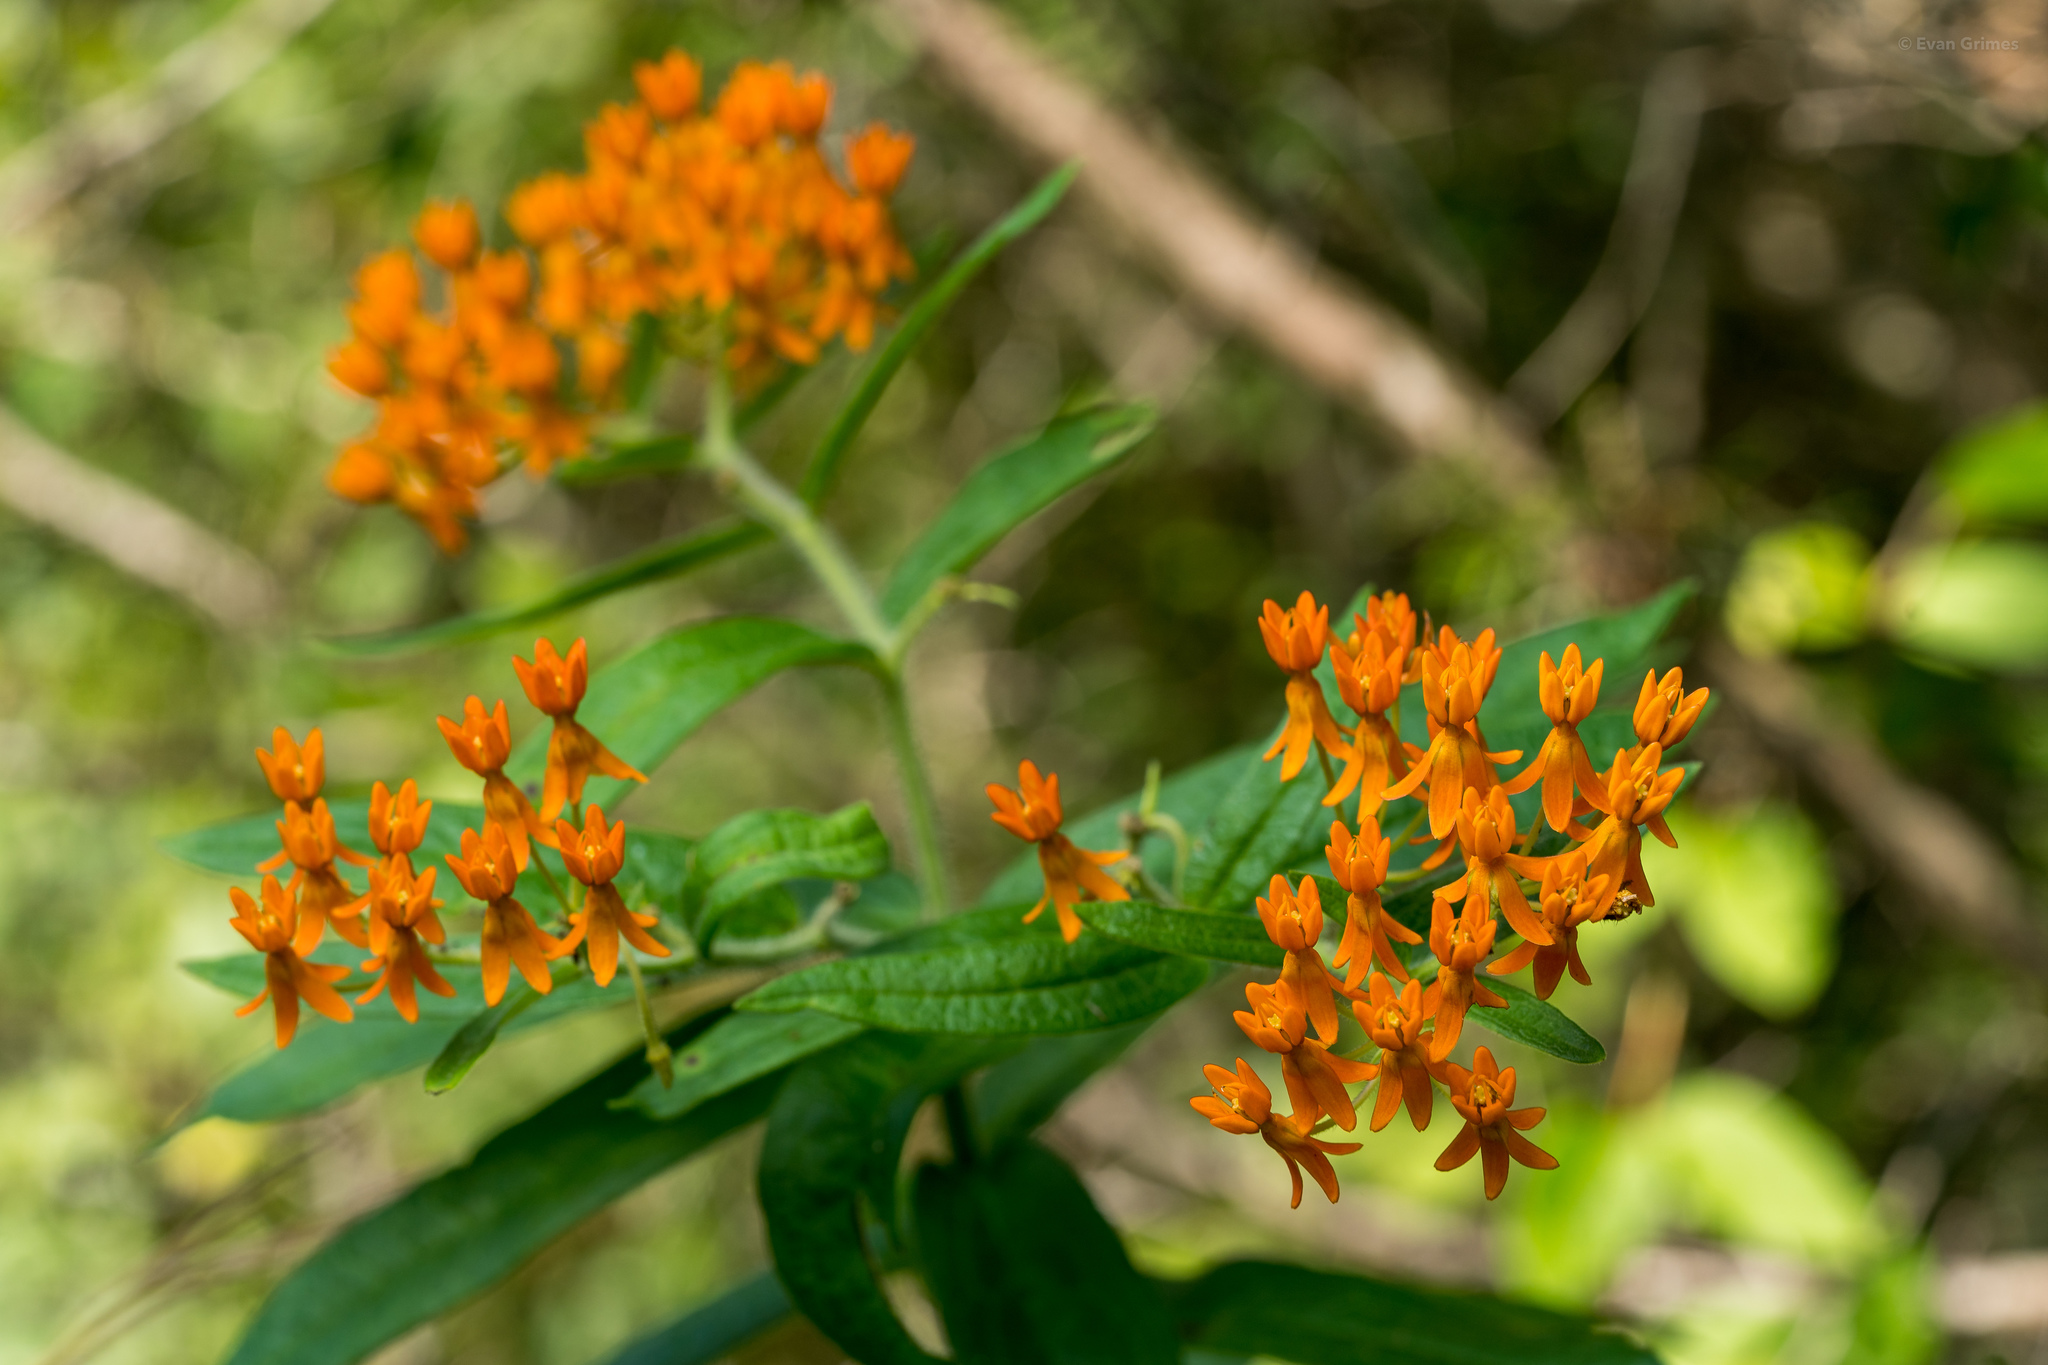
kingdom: Plantae
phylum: Tracheophyta
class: Magnoliopsida
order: Gentianales
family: Apocynaceae
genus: Asclepias
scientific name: Asclepias tuberosa
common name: Butterfly milkweed
